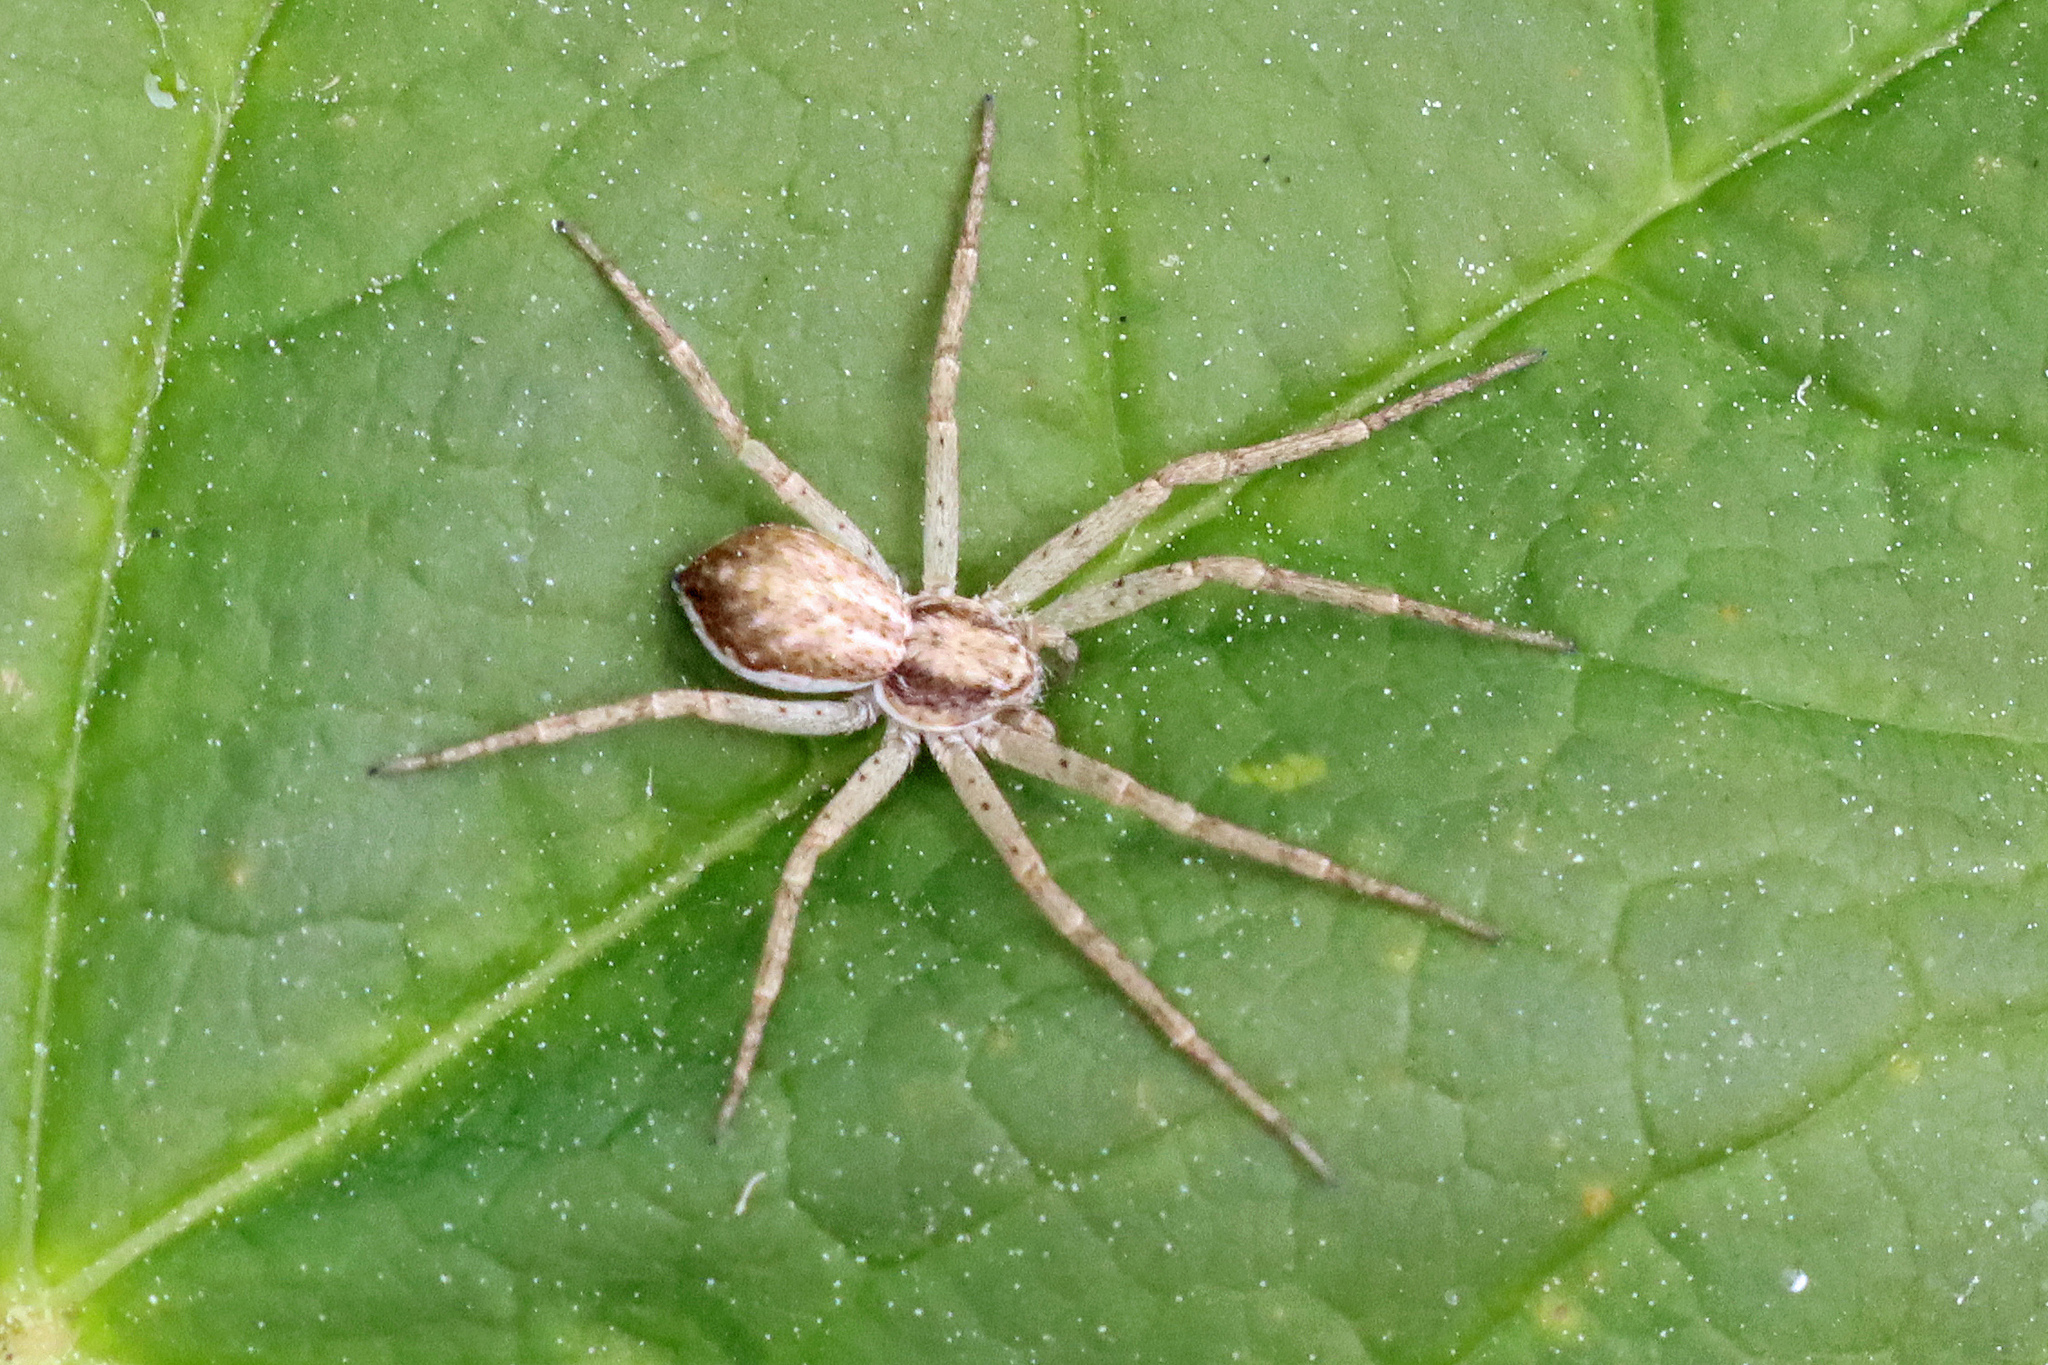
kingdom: Animalia
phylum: Arthropoda
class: Arachnida
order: Araneae
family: Philodromidae
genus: Philodromus
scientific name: Philodromus dispar
